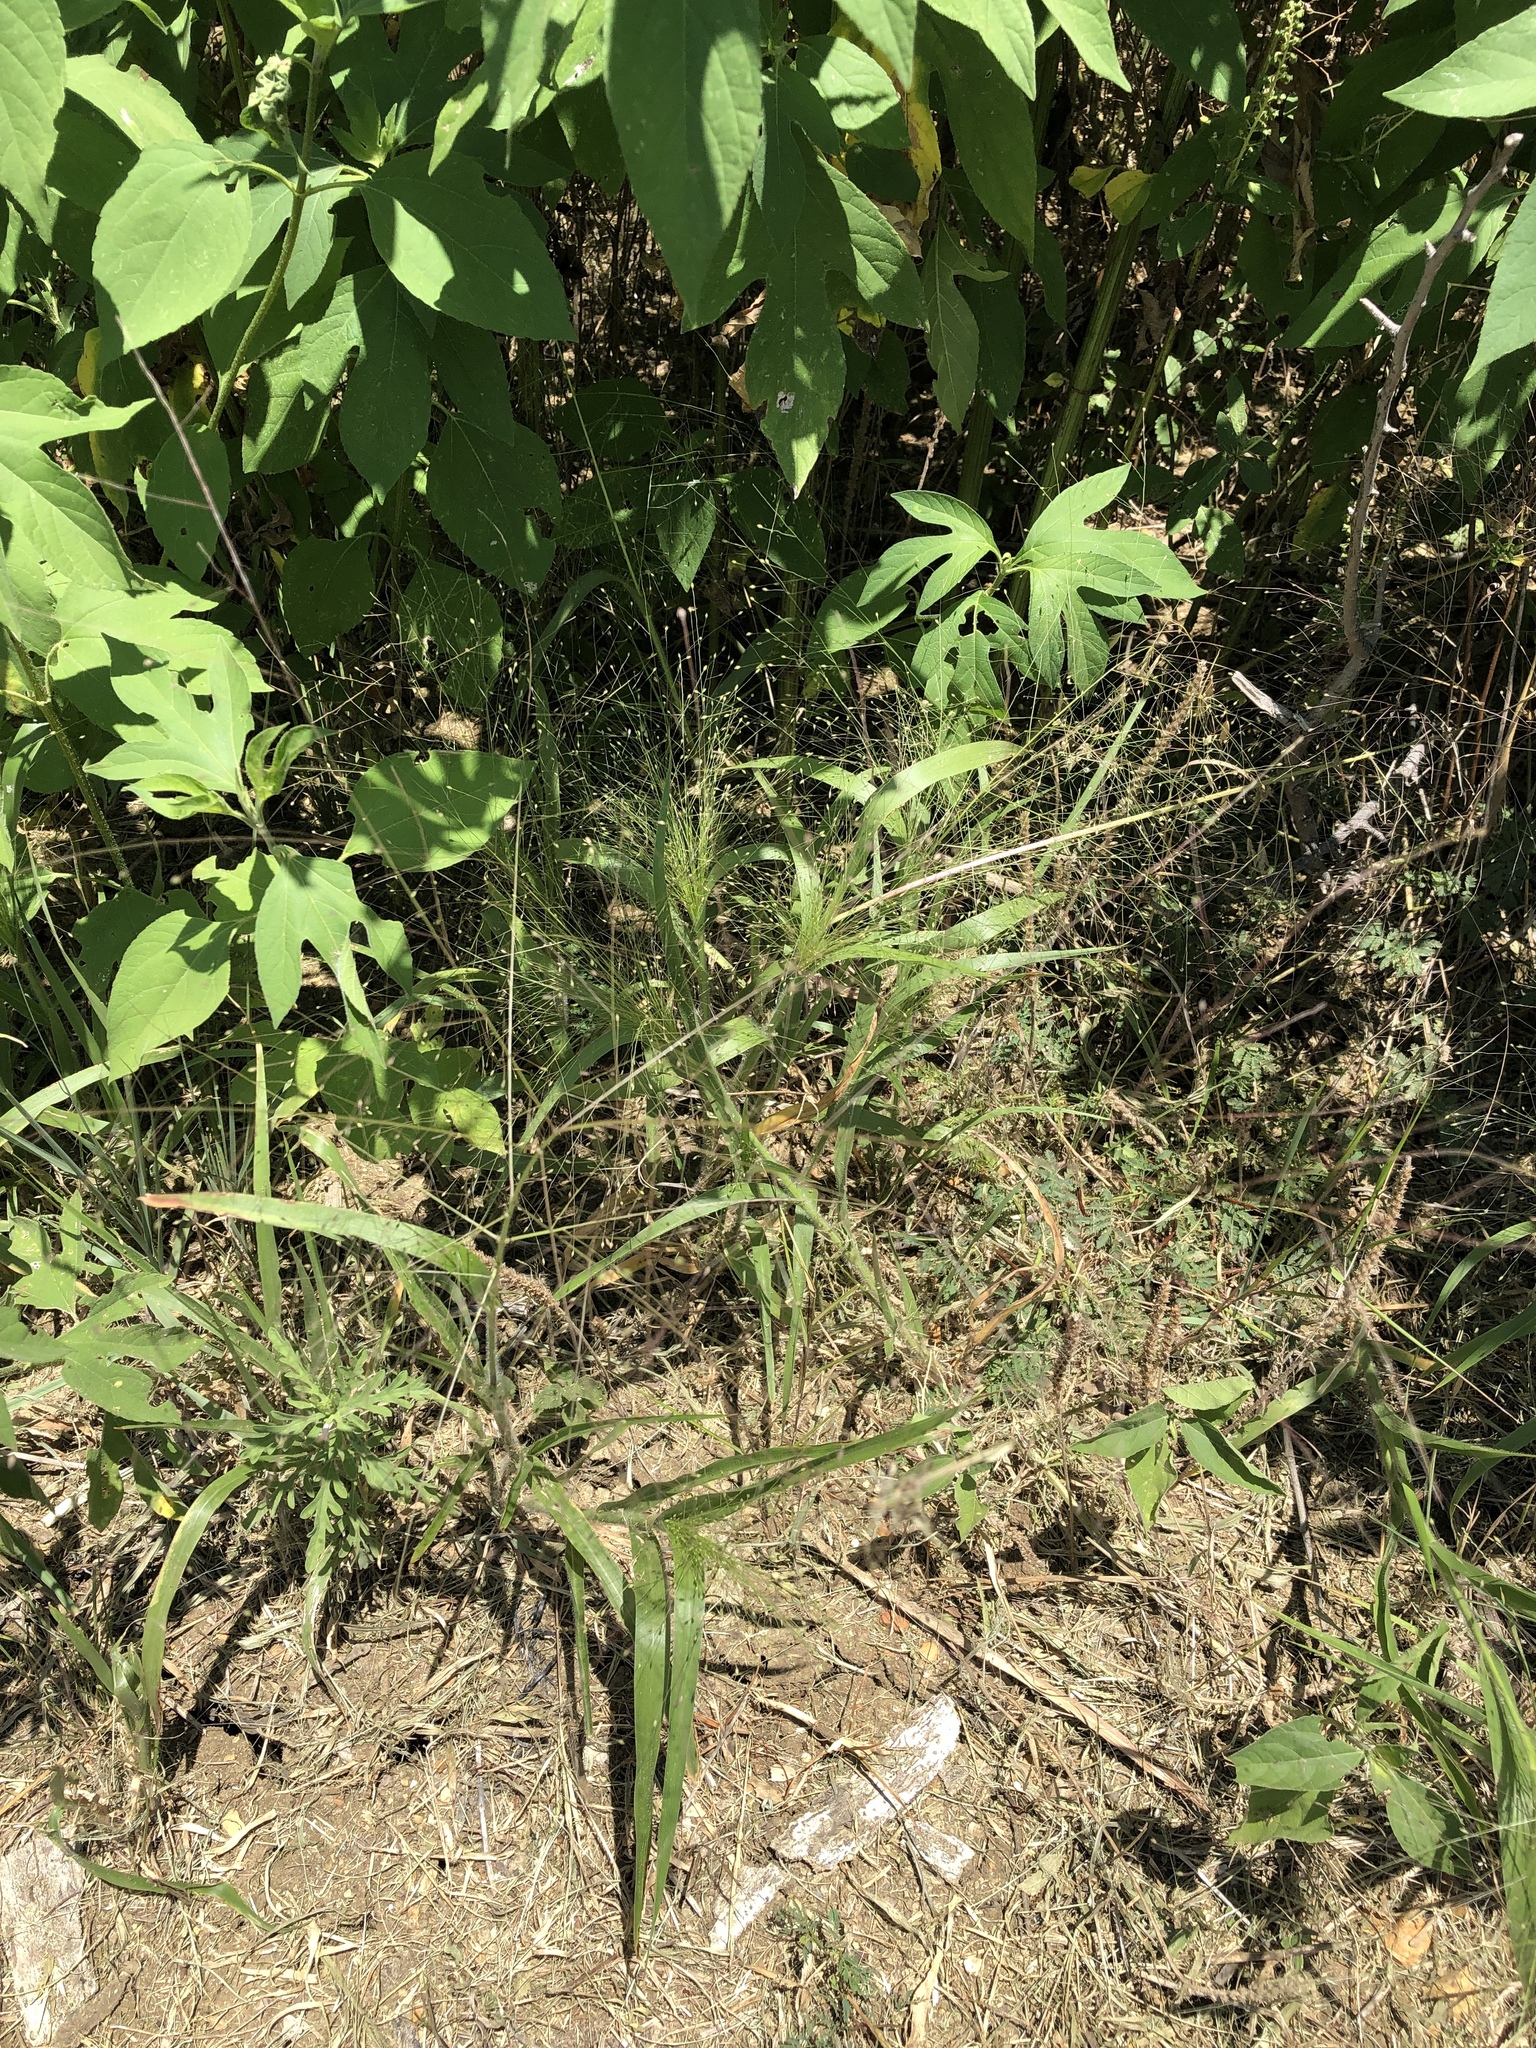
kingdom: Plantae
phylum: Tracheophyta
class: Liliopsida
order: Poales
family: Poaceae
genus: Panicum
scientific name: Panicum capillare
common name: Witch-grass
